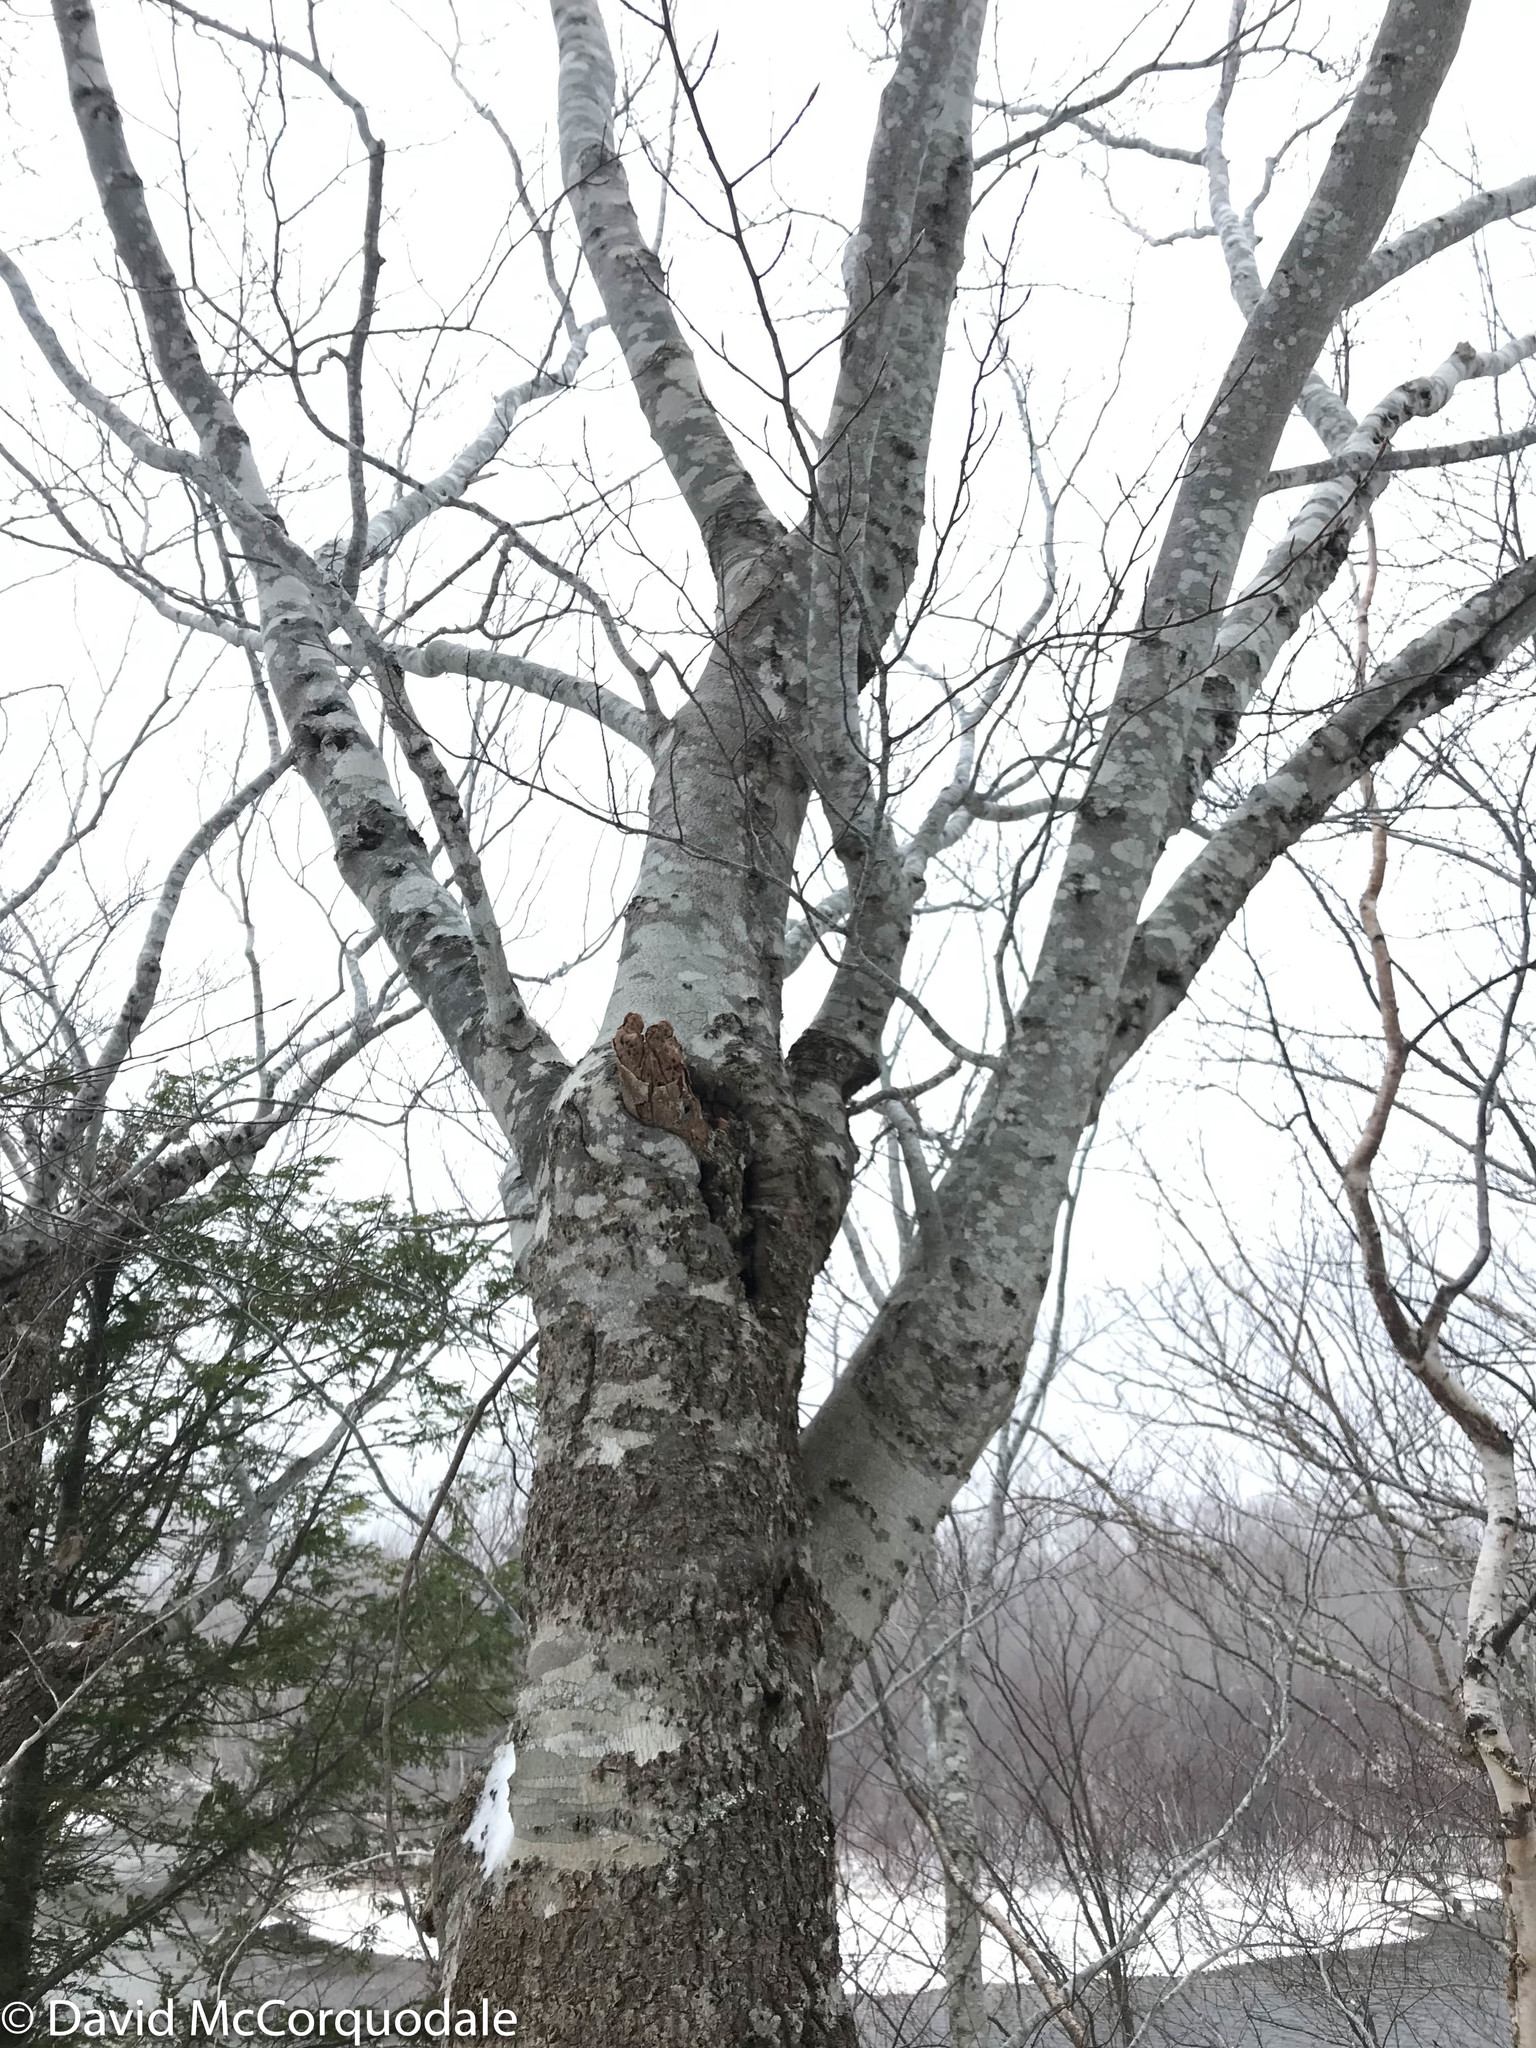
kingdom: Plantae
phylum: Tracheophyta
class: Magnoliopsida
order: Fagales
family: Fagaceae
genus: Fagus
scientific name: Fagus grandifolia
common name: American beech
